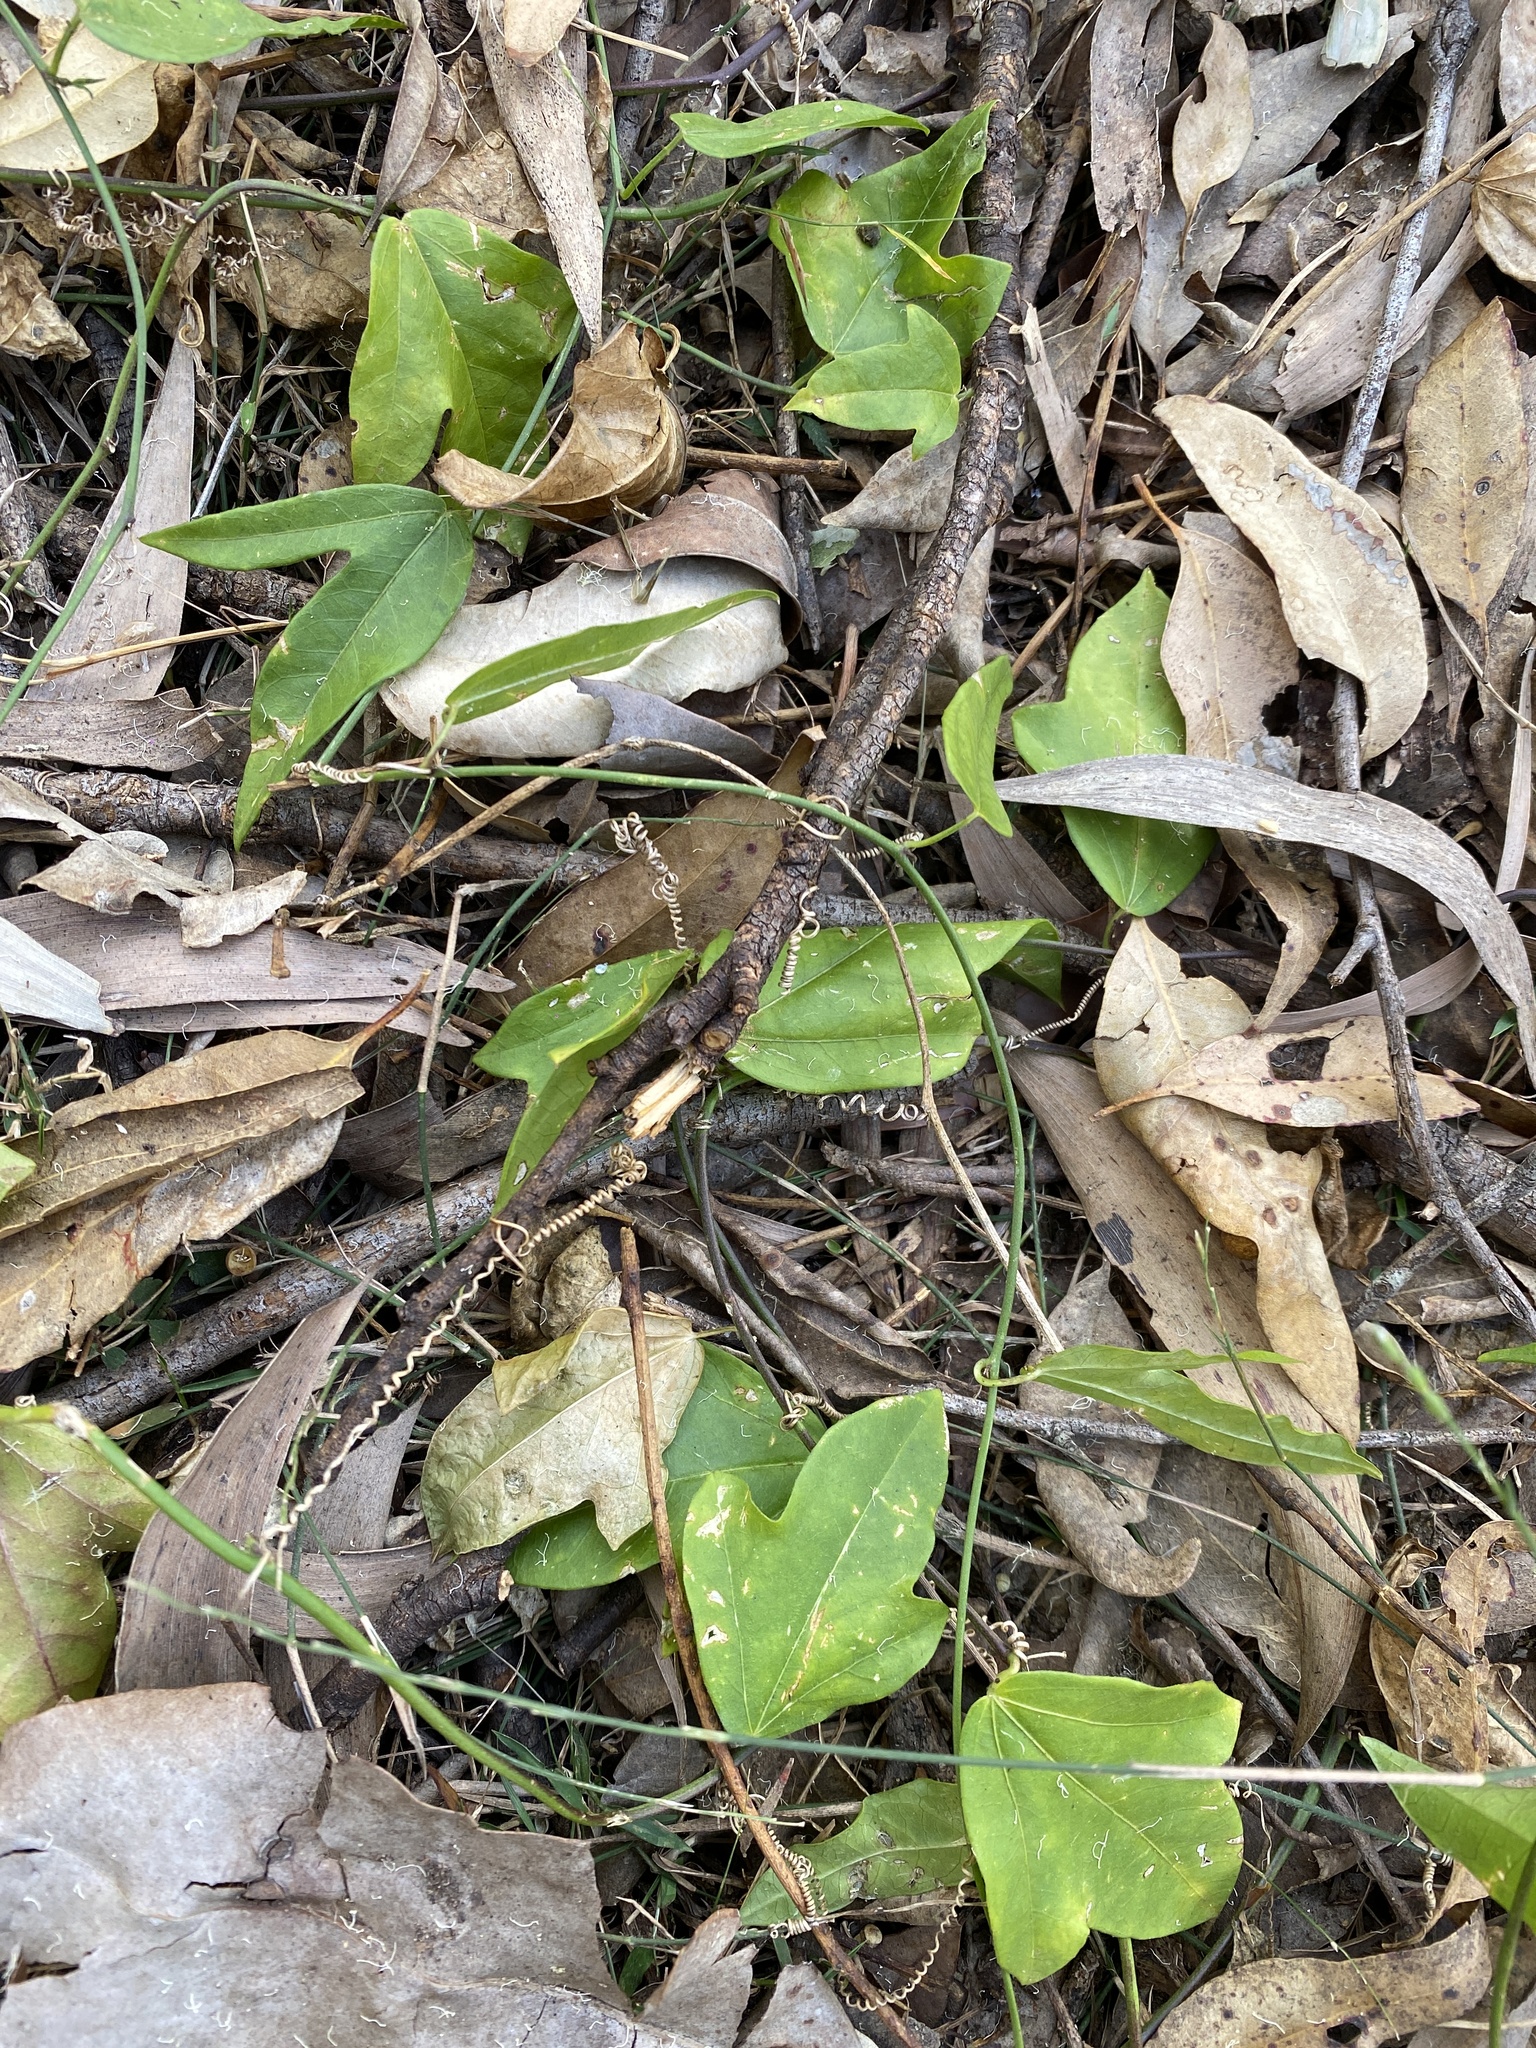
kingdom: Plantae
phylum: Tracheophyta
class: Magnoliopsida
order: Malpighiales
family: Passifloraceae
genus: Passiflora
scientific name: Passiflora pallida
